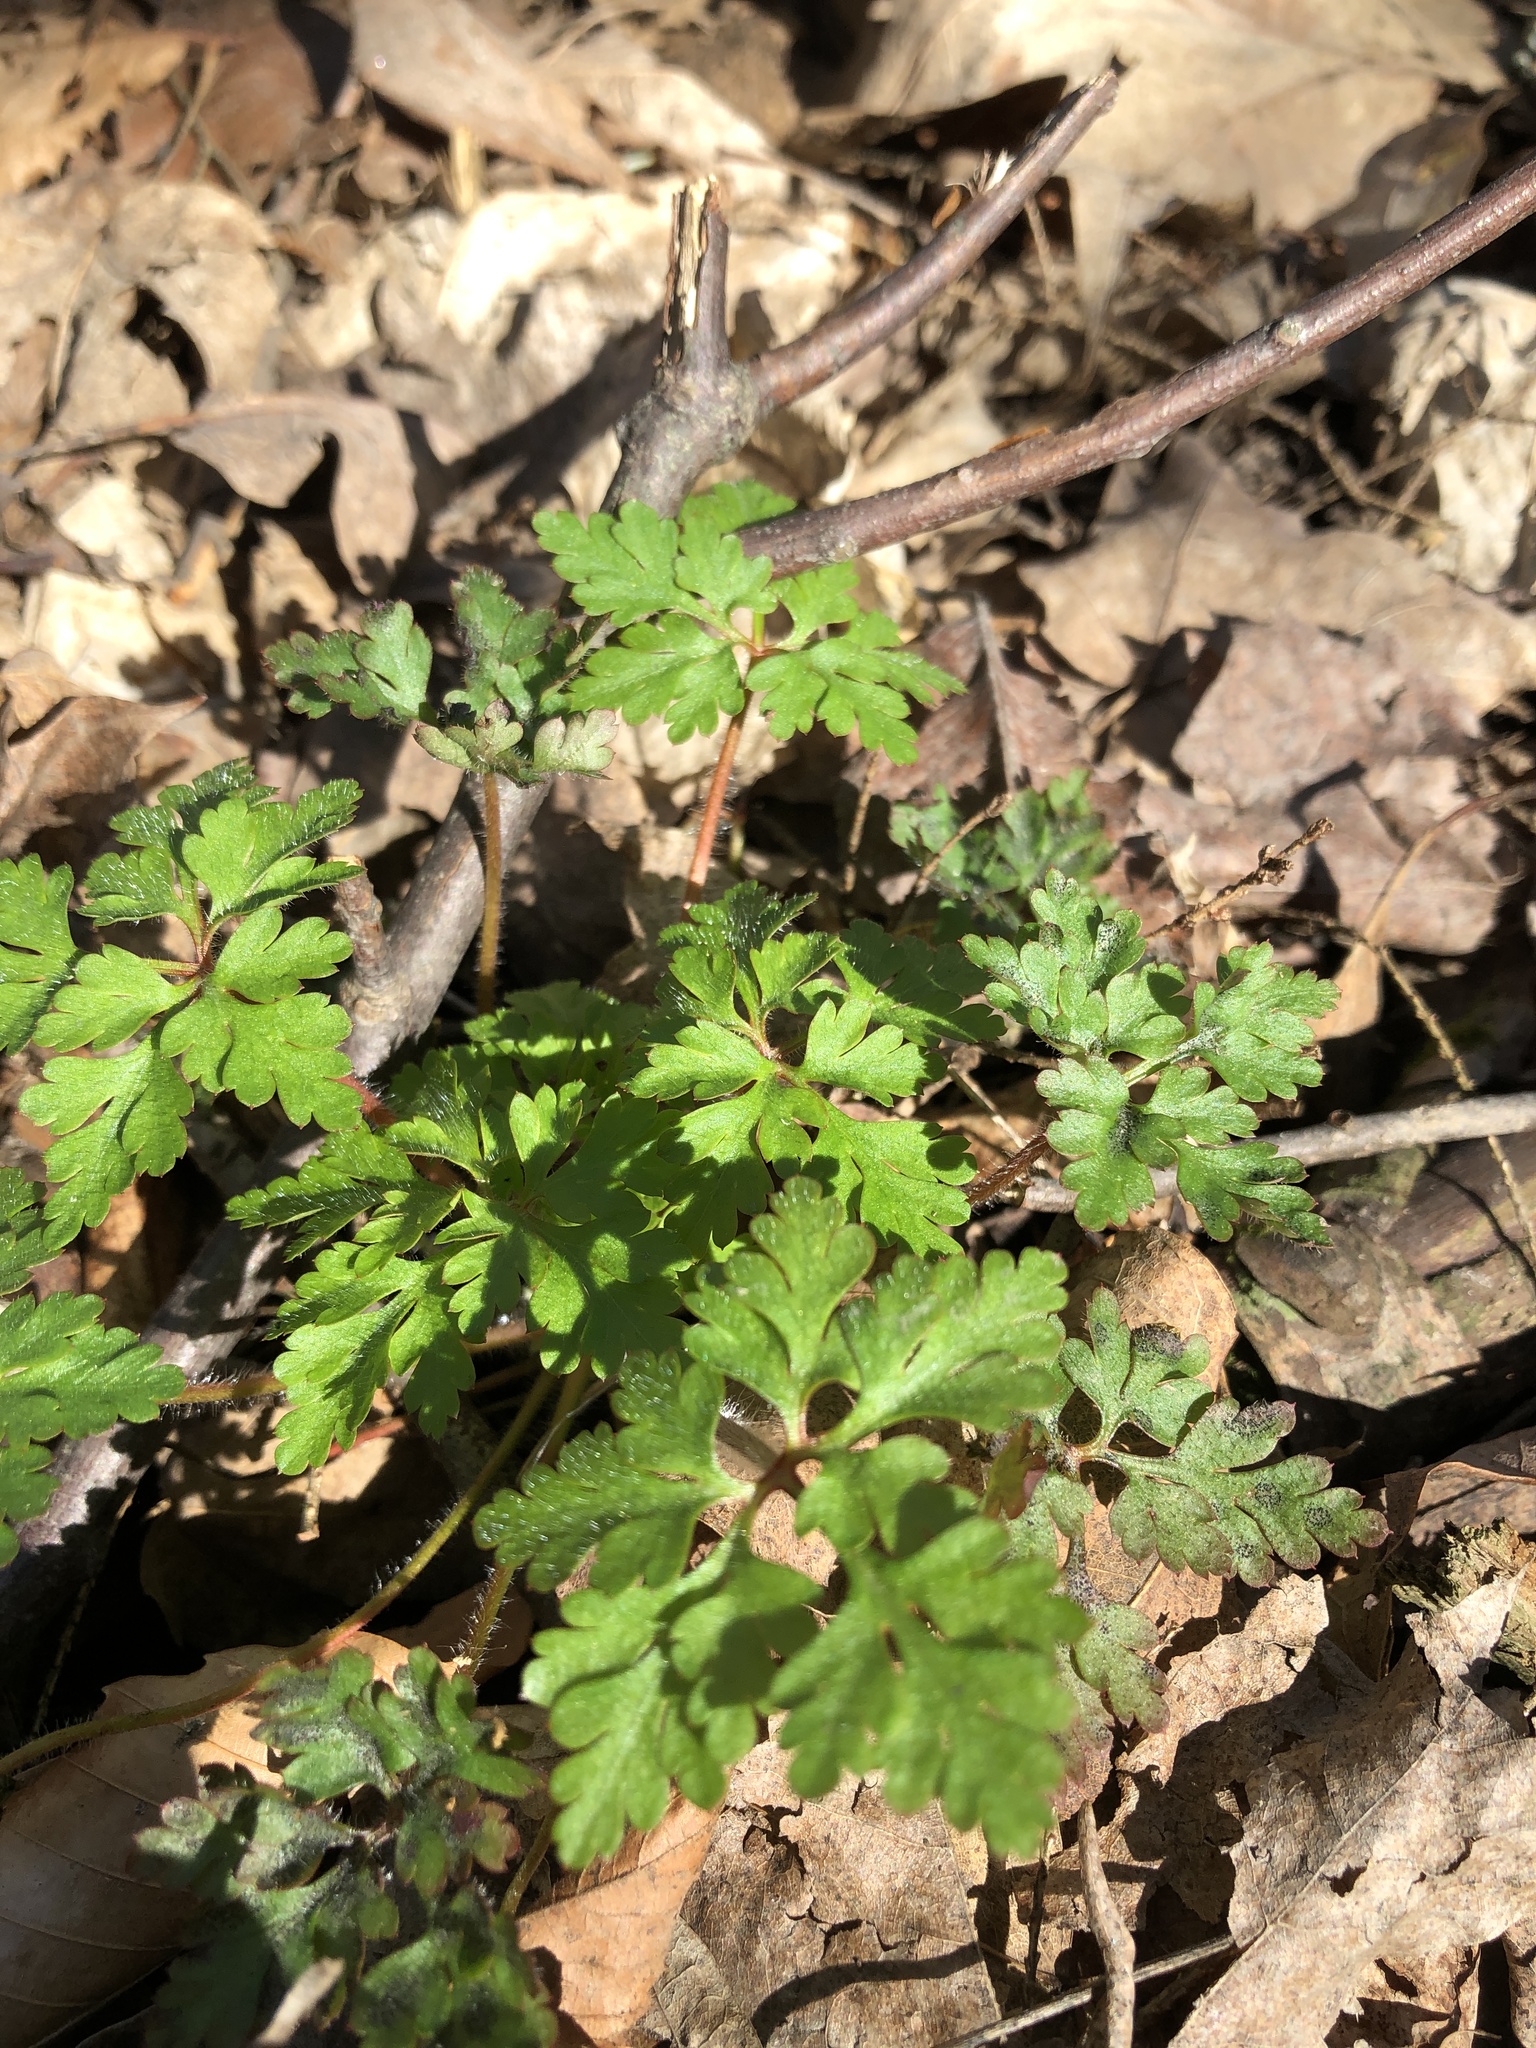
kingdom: Plantae
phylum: Tracheophyta
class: Magnoliopsida
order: Geraniales
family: Geraniaceae
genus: Geranium
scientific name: Geranium robertianum
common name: Herb-robert
